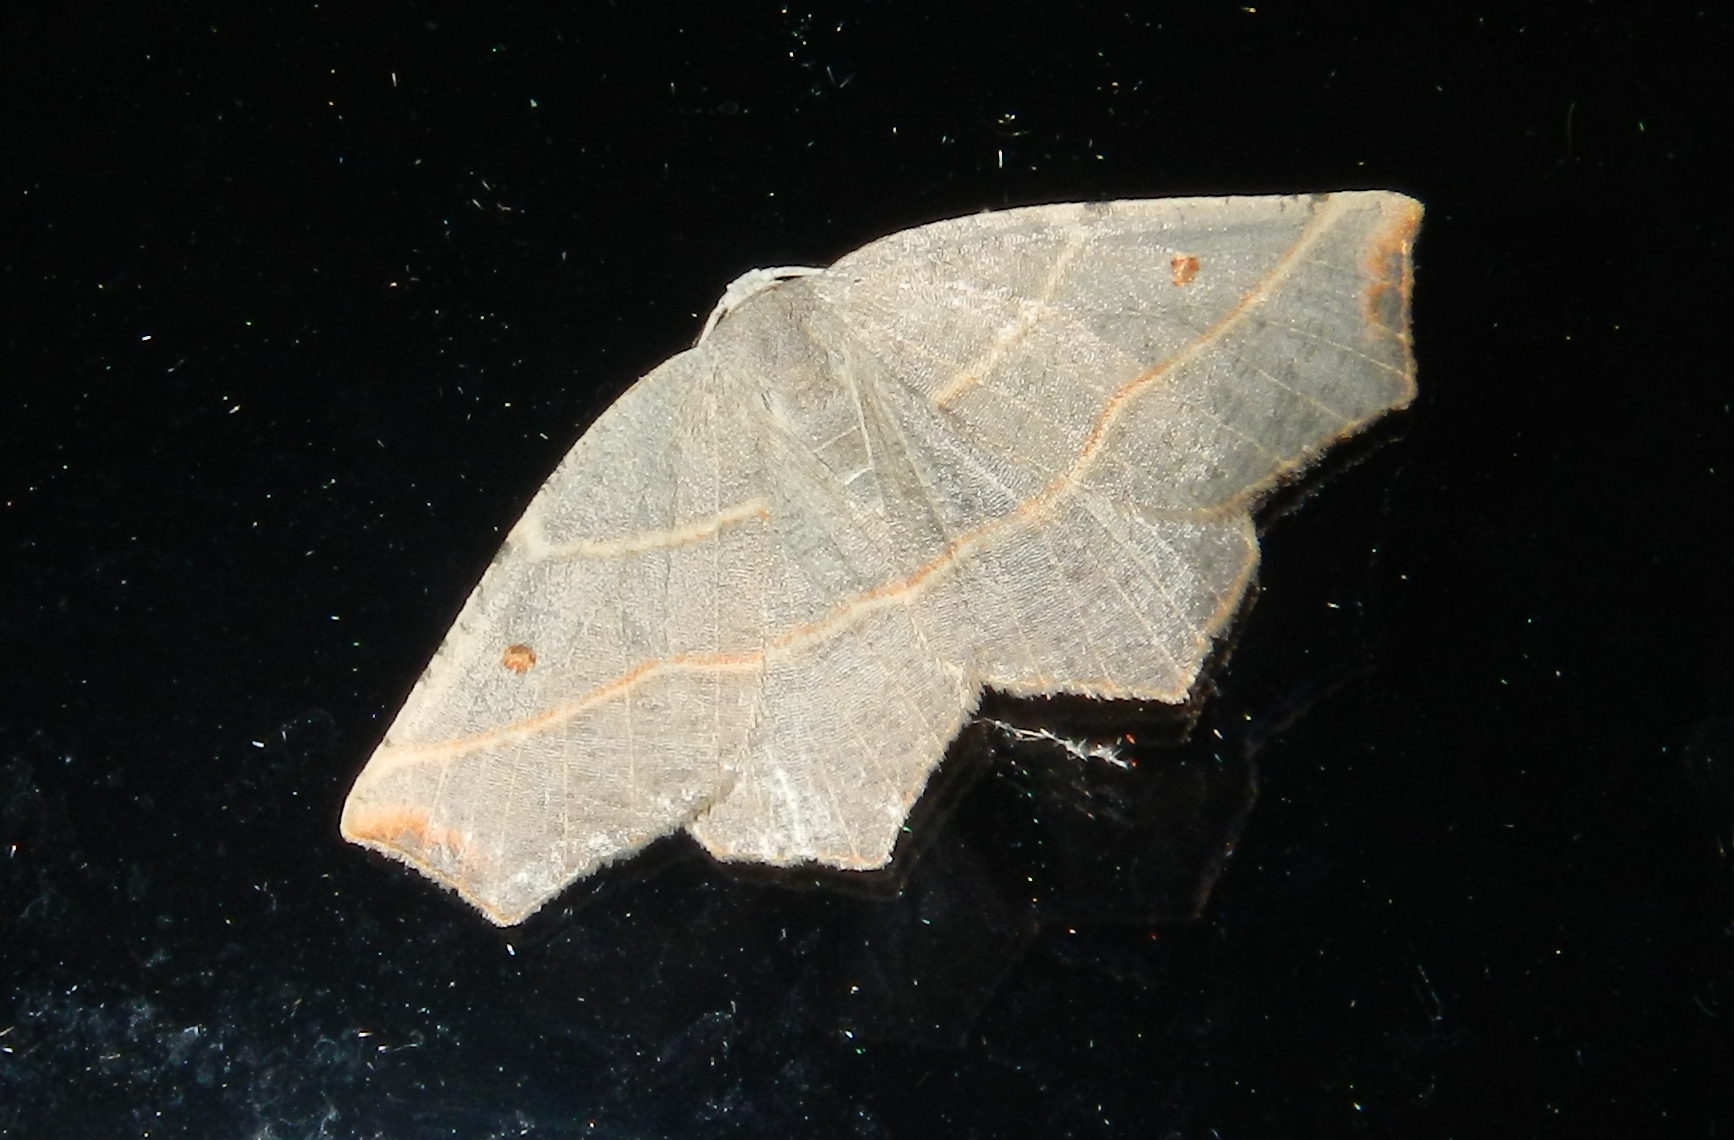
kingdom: Animalia
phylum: Arthropoda
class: Insecta
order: Lepidoptera
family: Geometridae
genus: Metanema
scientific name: Metanema inatomaria
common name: Pale metanema
